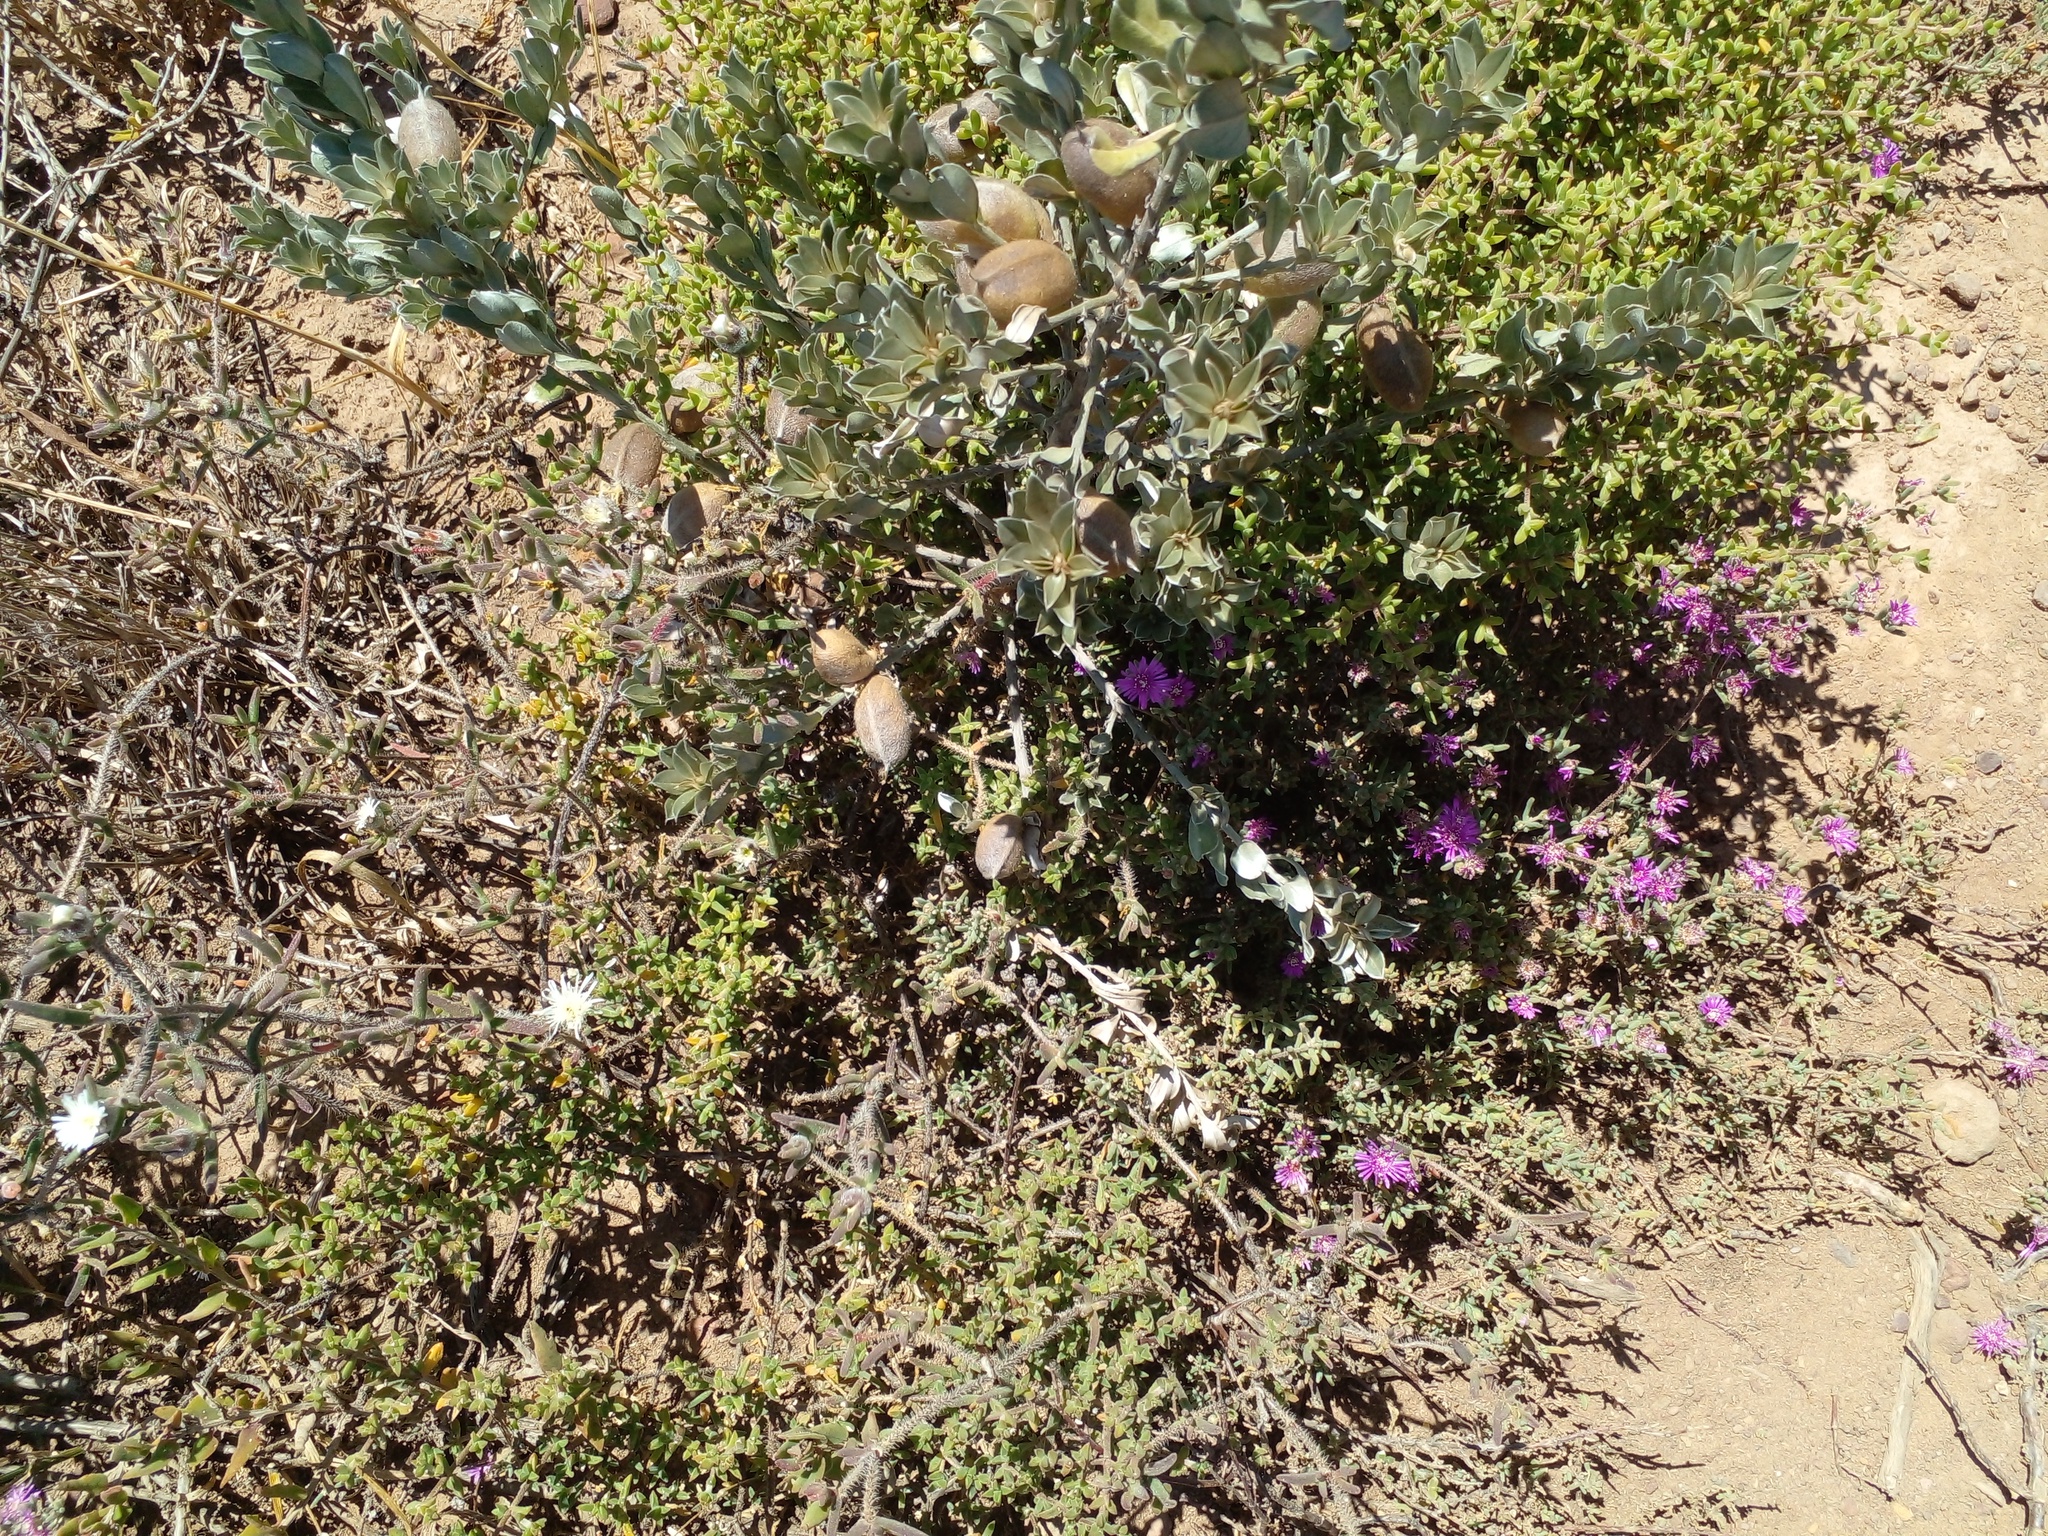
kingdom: Plantae
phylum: Tracheophyta
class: Magnoliopsida
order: Caryophyllales
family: Aizoaceae
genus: Drosanthemum
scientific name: Drosanthemum calycinum
